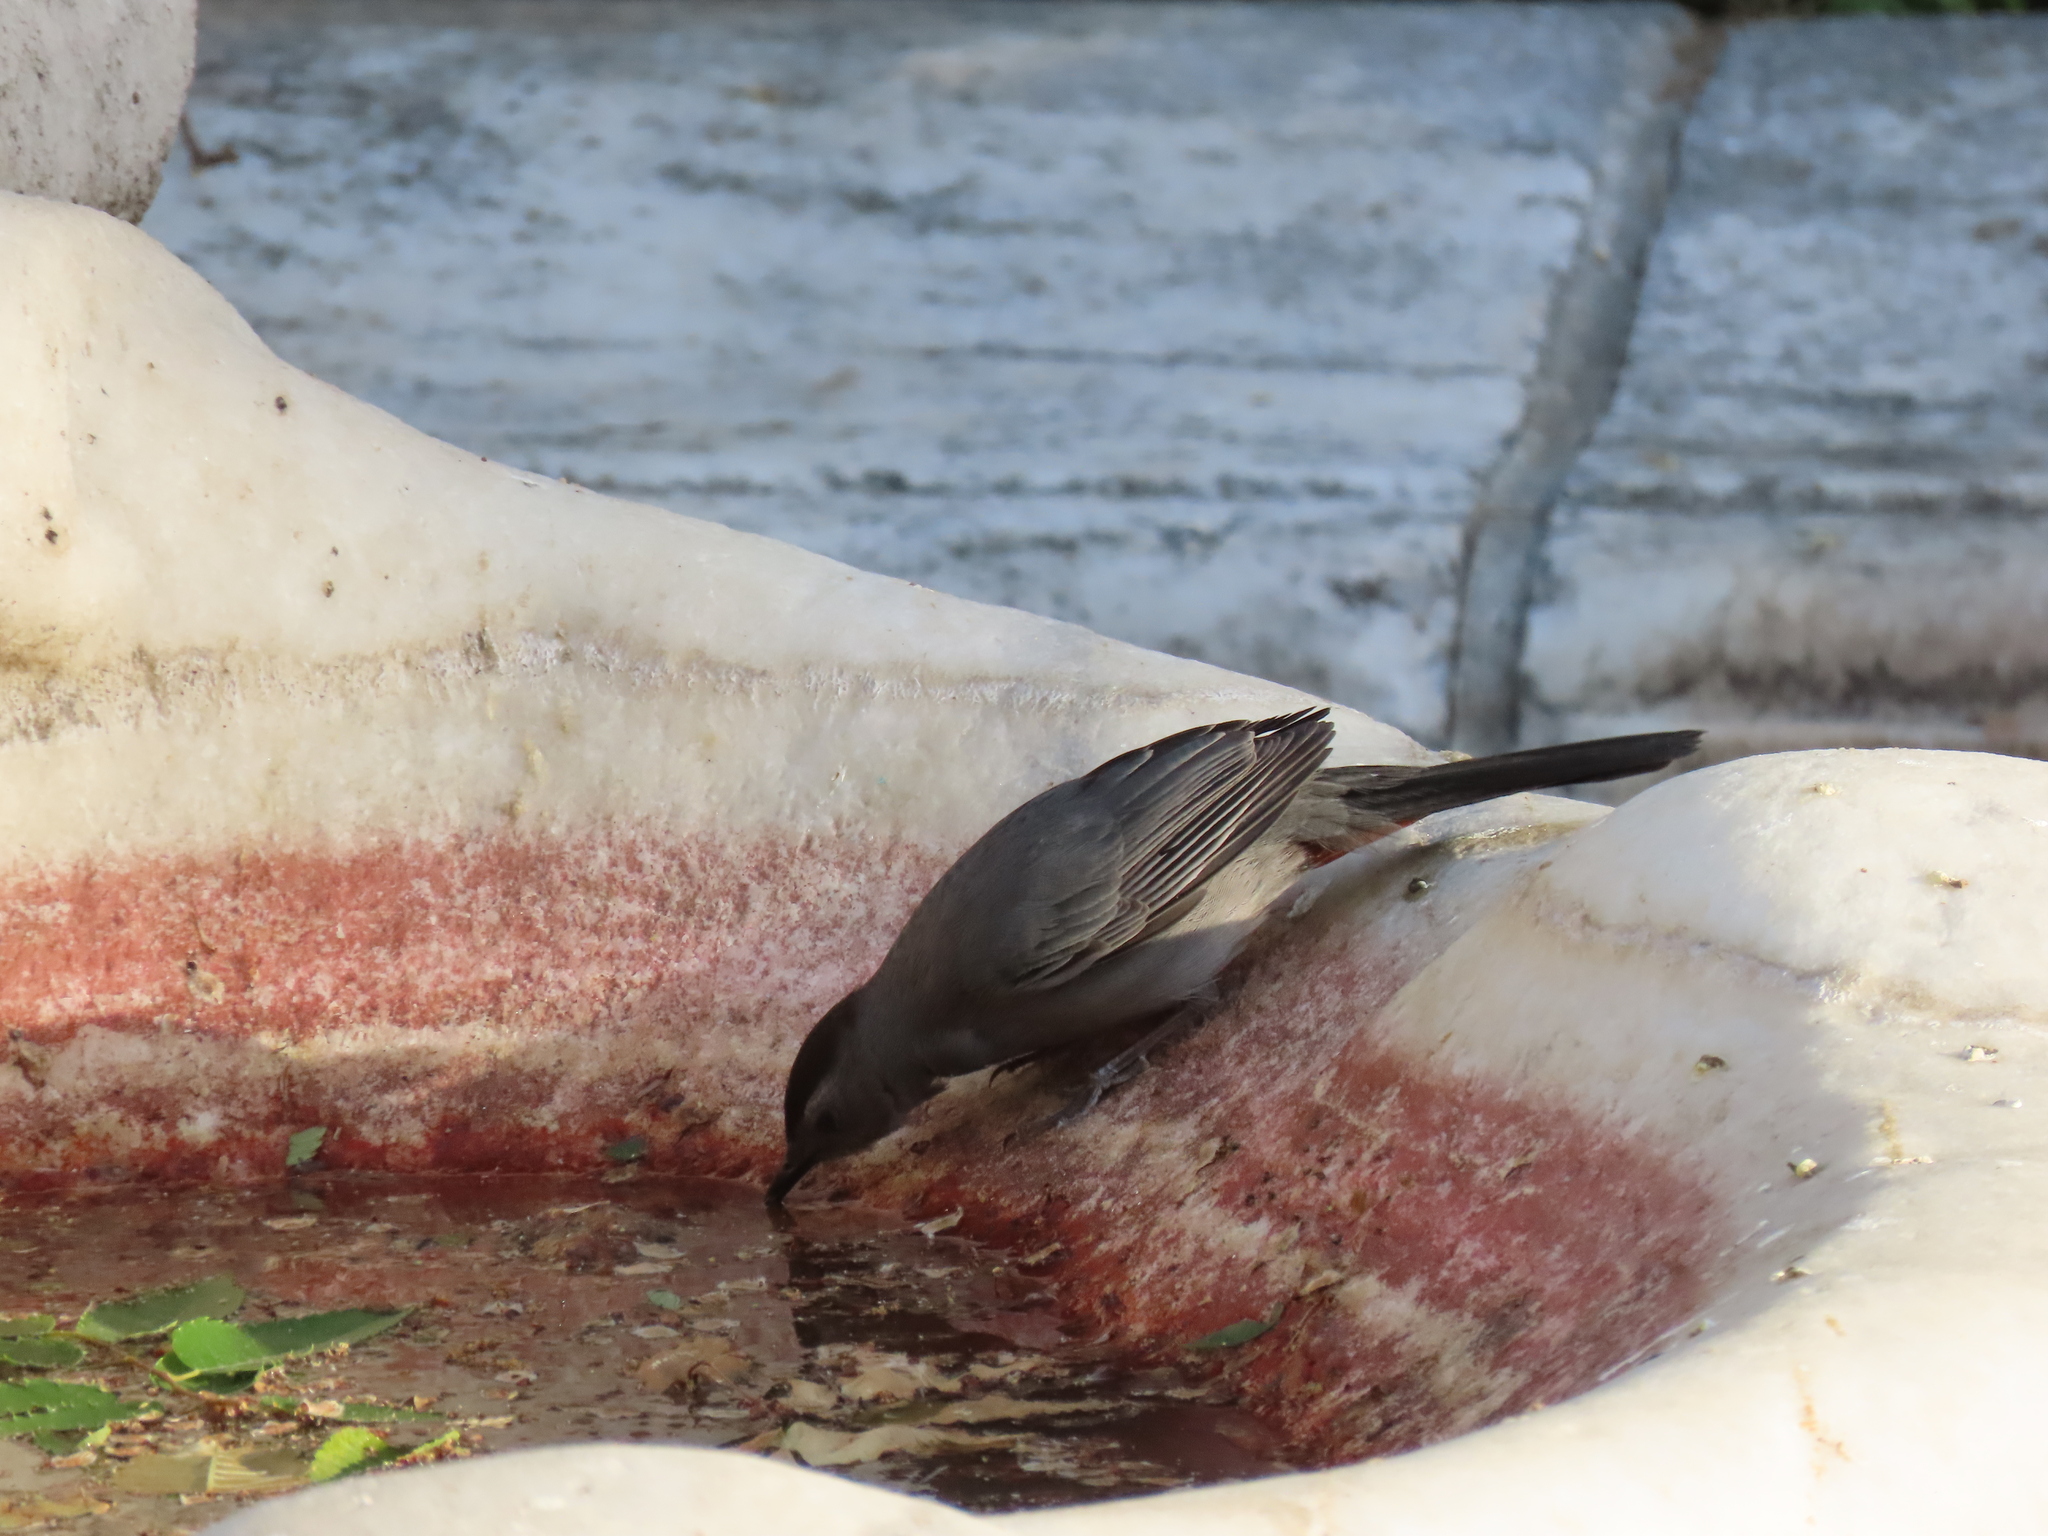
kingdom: Animalia
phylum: Chordata
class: Aves
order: Passeriformes
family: Mimidae
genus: Dumetella
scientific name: Dumetella carolinensis
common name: Gray catbird
